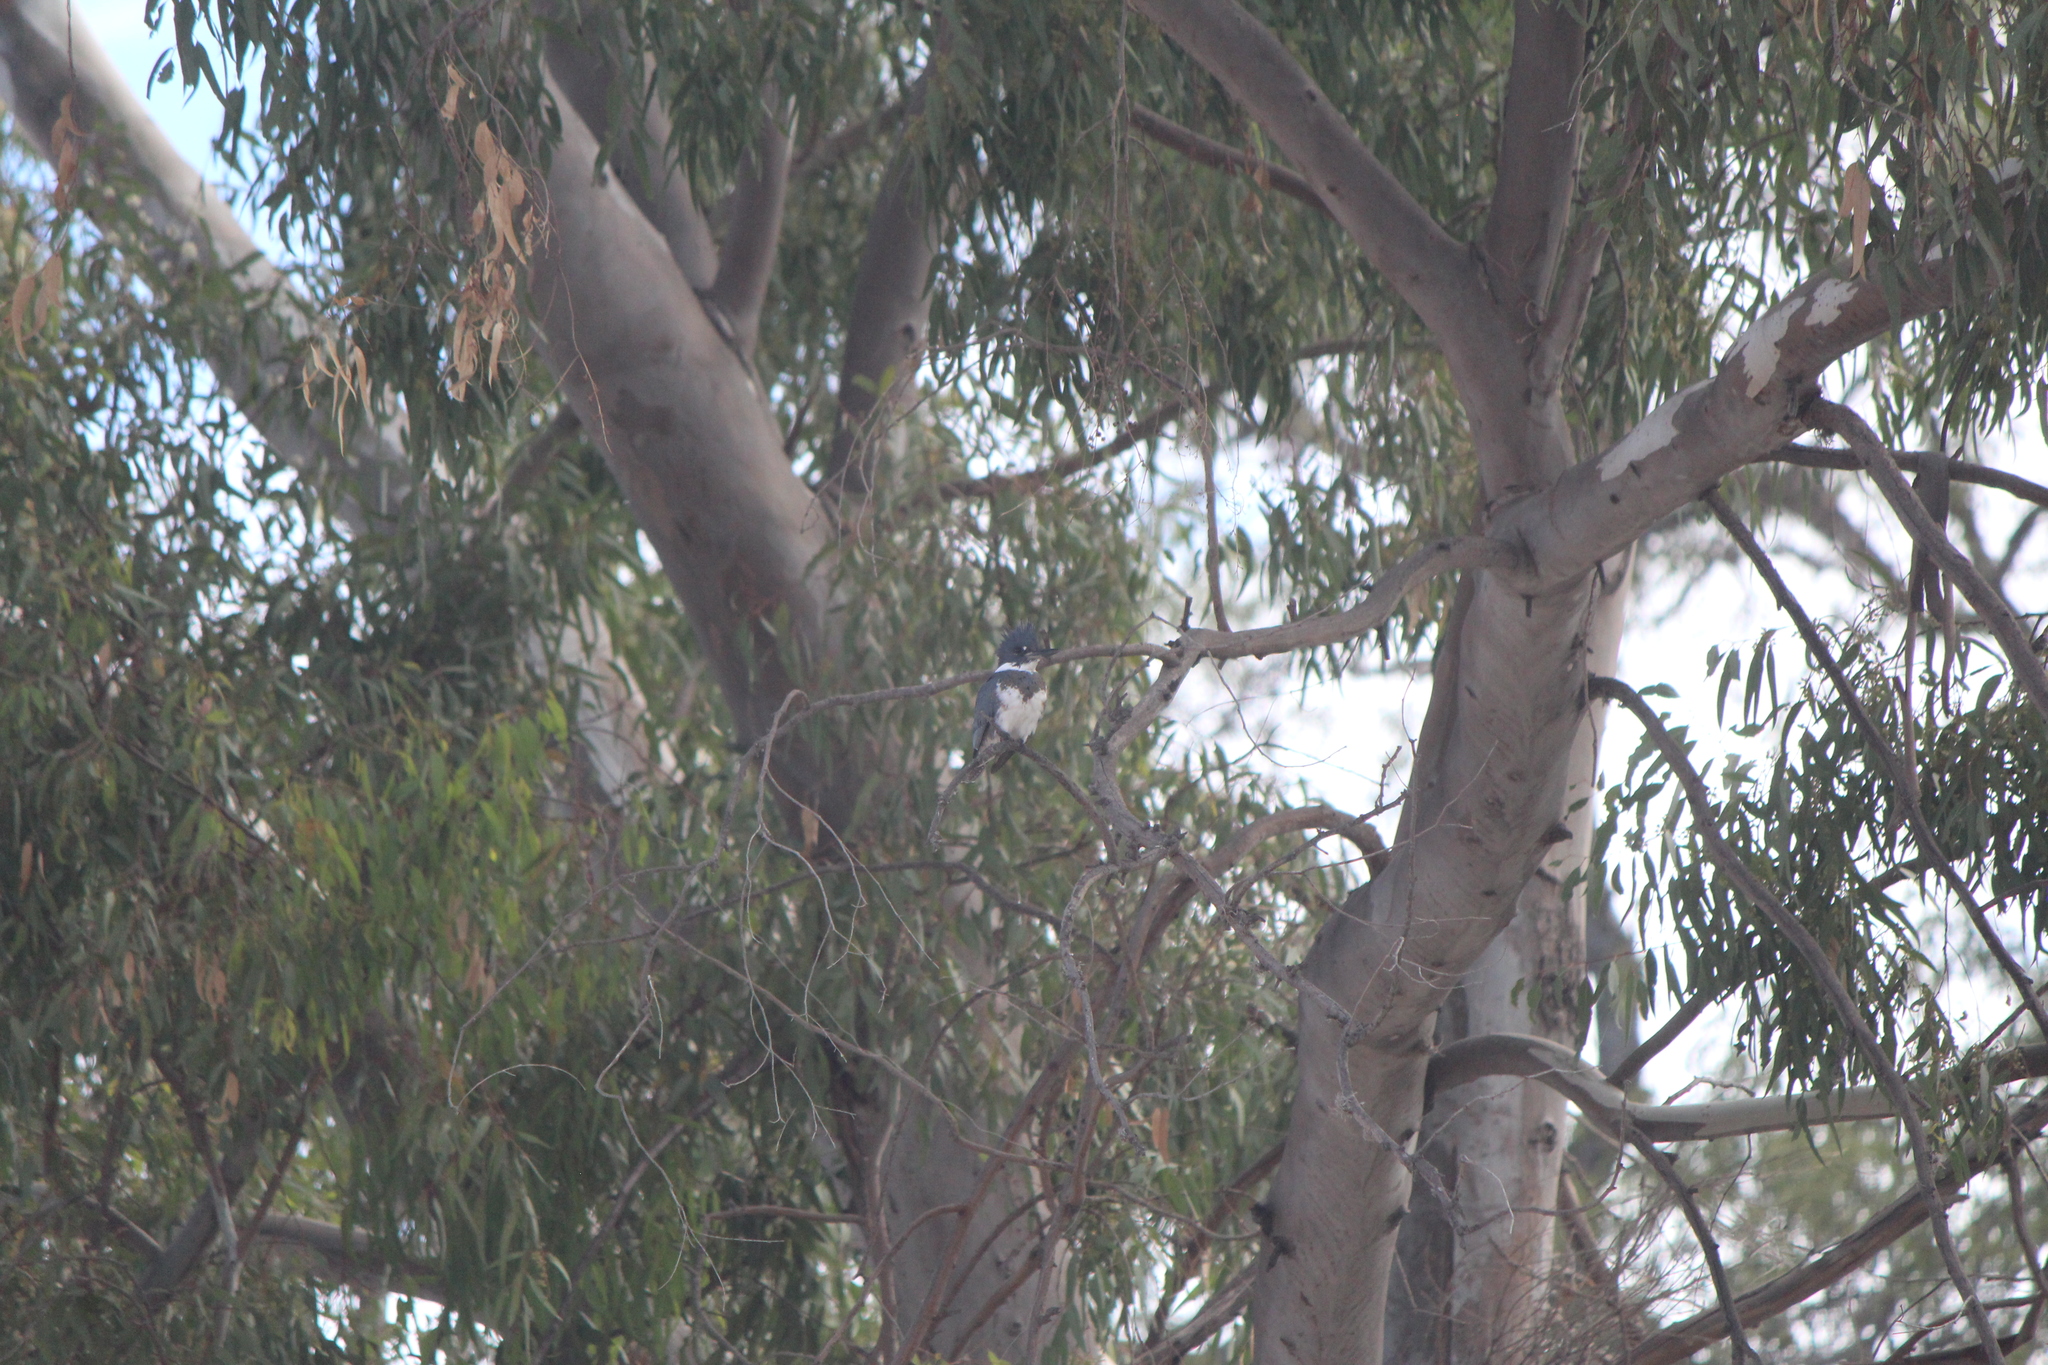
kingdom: Animalia
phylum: Chordata
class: Aves
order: Coraciiformes
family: Alcedinidae
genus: Megaceryle
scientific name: Megaceryle alcyon
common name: Belted kingfisher
